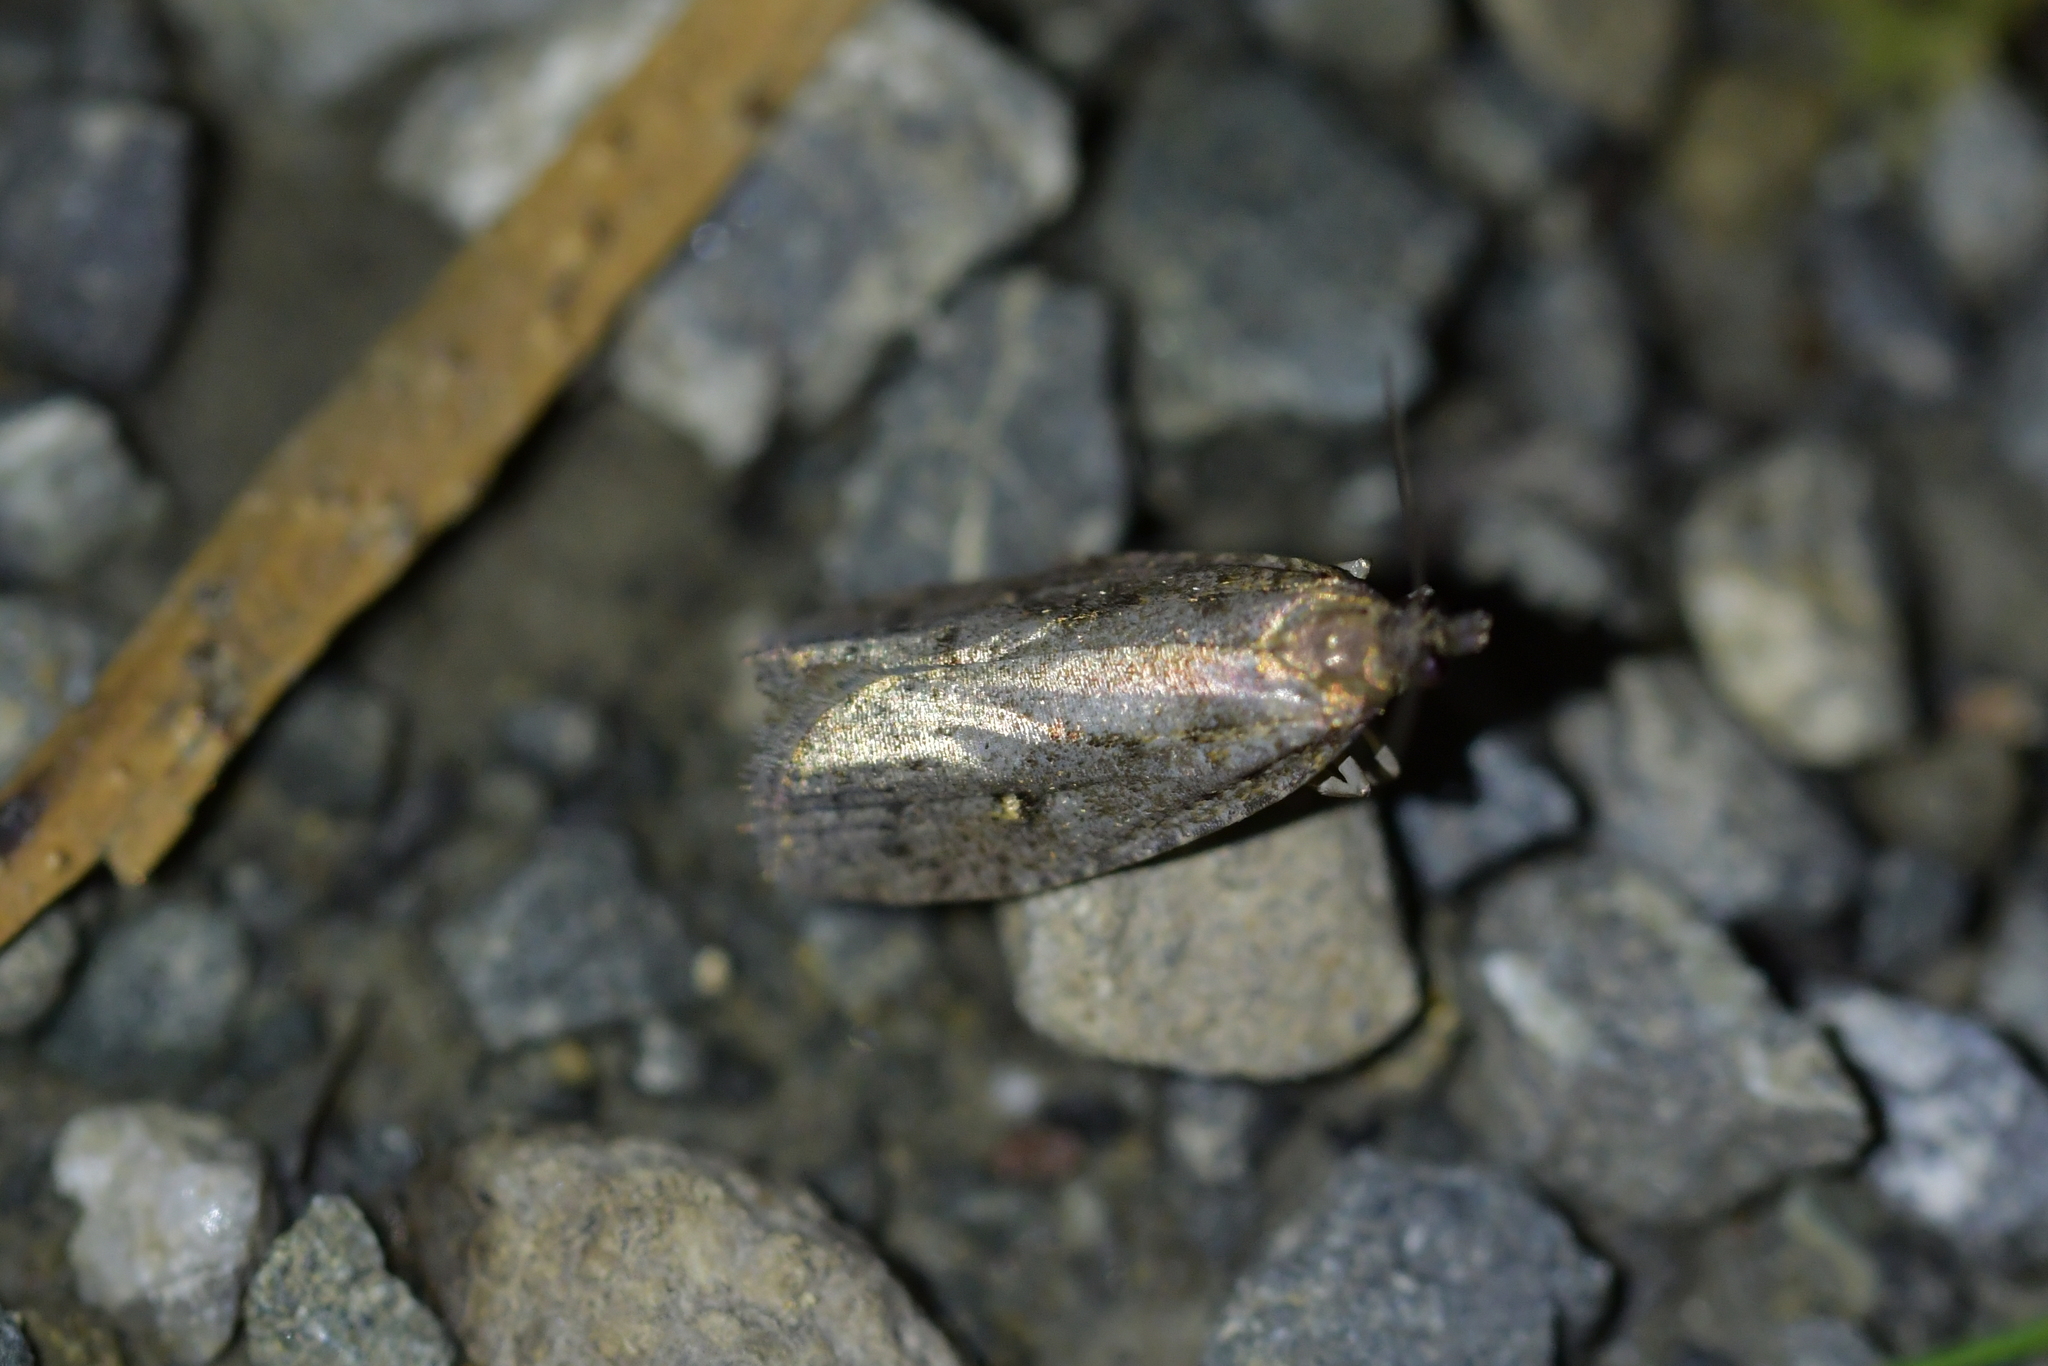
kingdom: Animalia
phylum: Arthropoda
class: Insecta
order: Lepidoptera
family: Tortricidae
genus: Cryptaspasma
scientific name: Cryptaspasma querula
